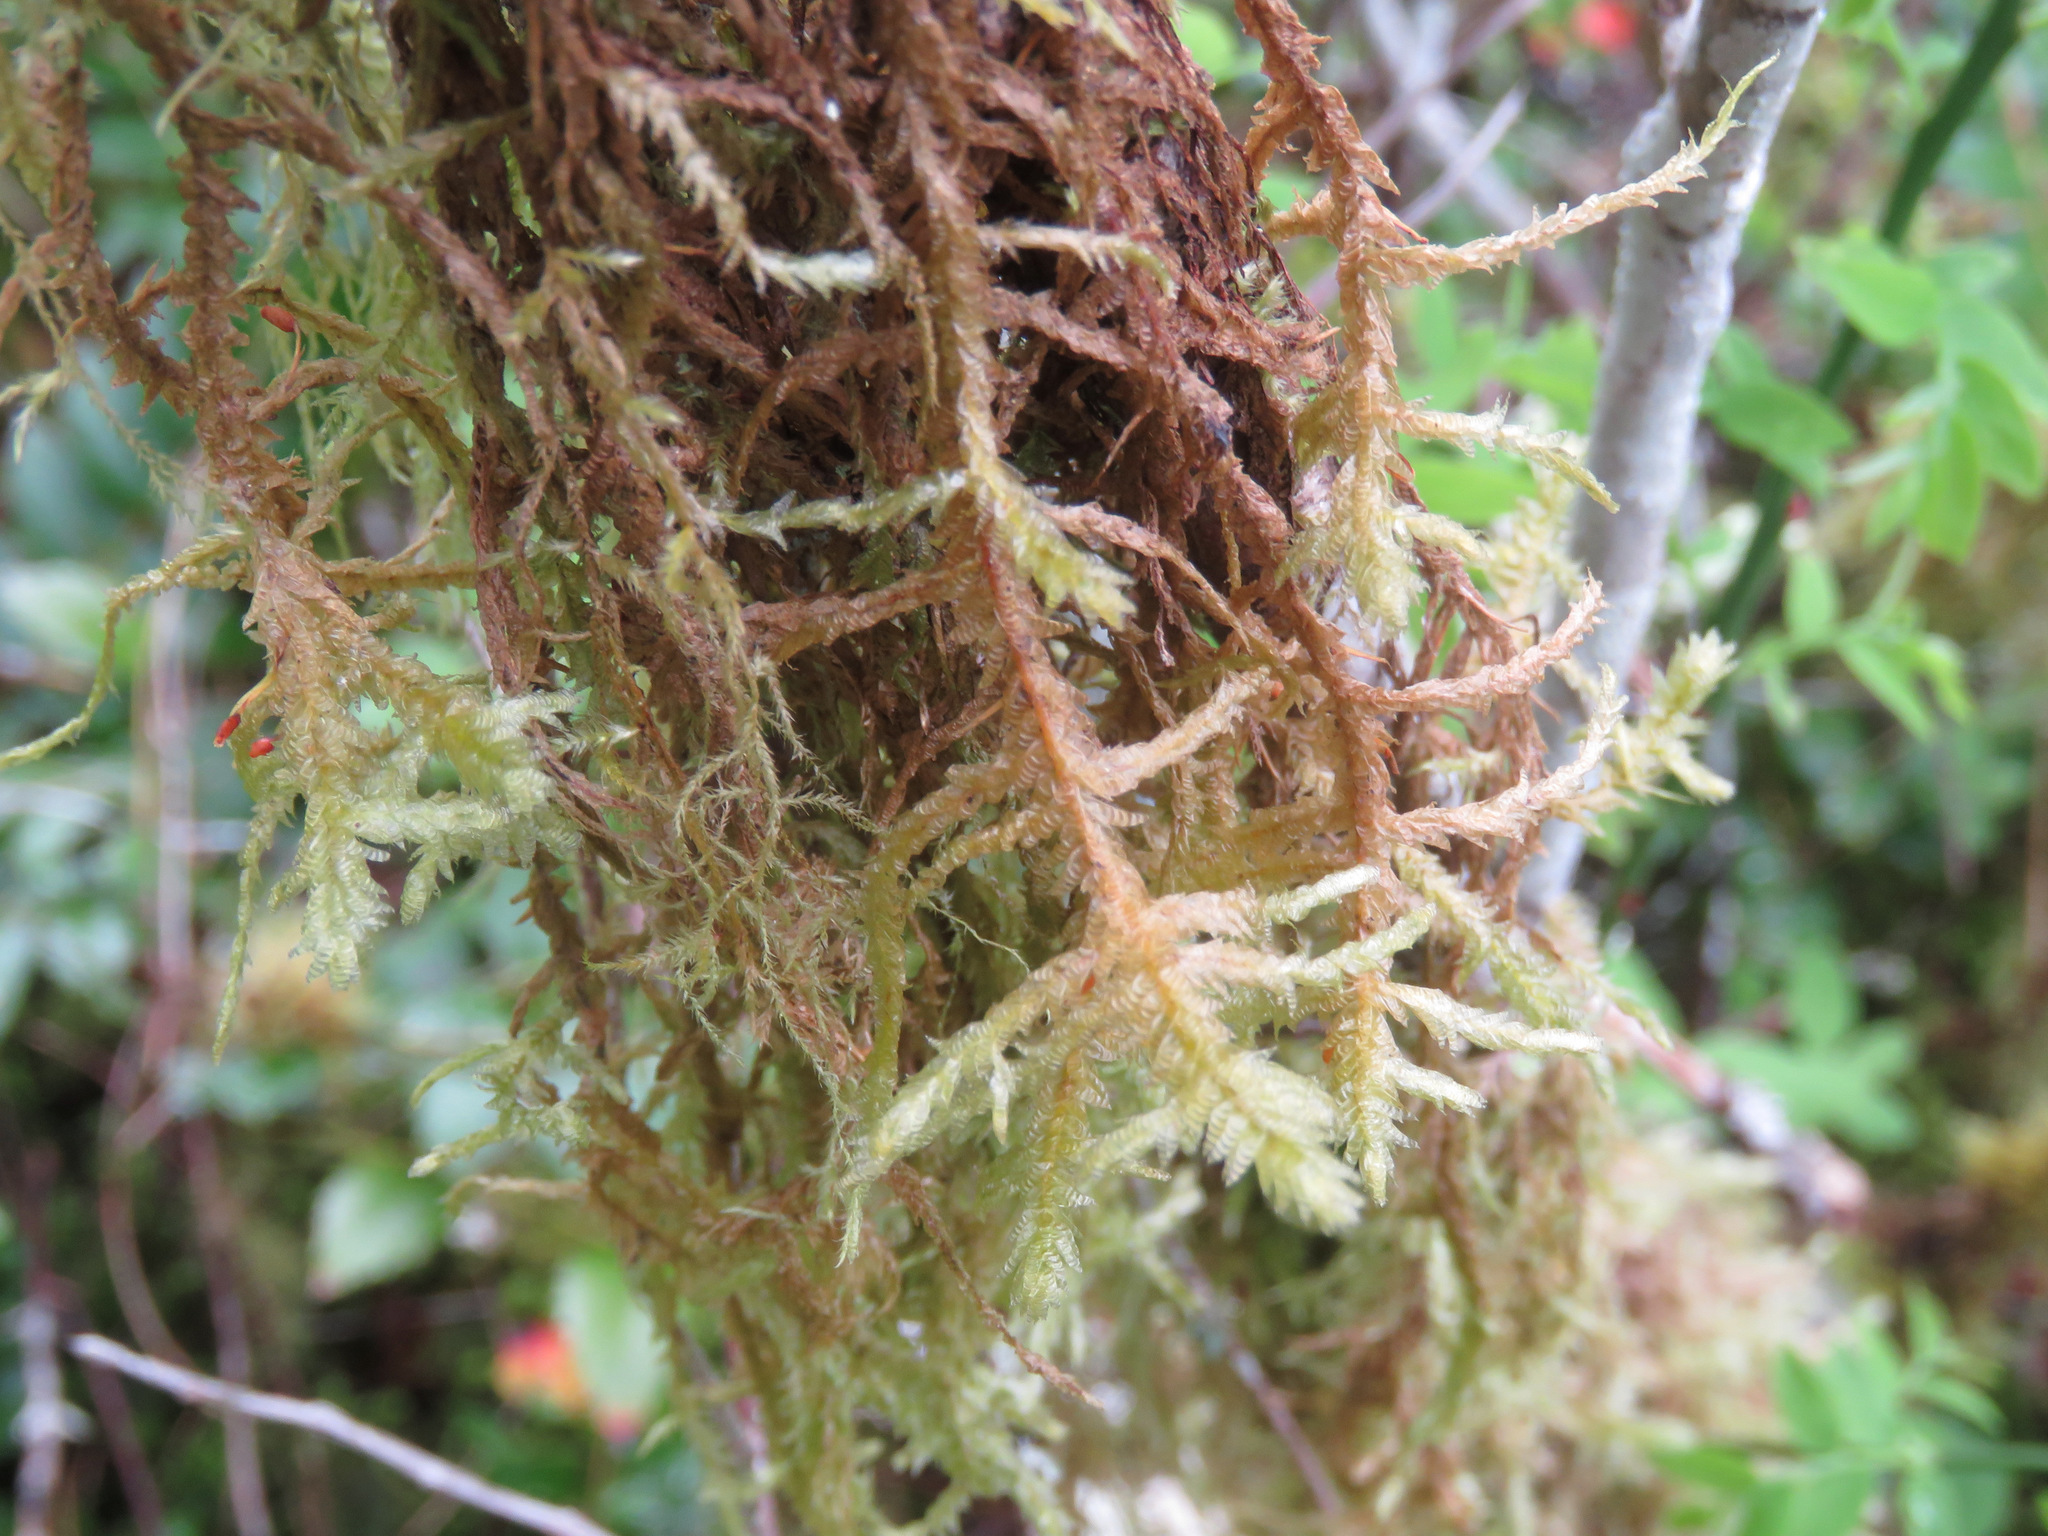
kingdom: Plantae
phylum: Bryophyta
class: Bryopsida
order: Hypnales
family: Neckeraceae
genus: Neckera
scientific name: Neckera douglasii
